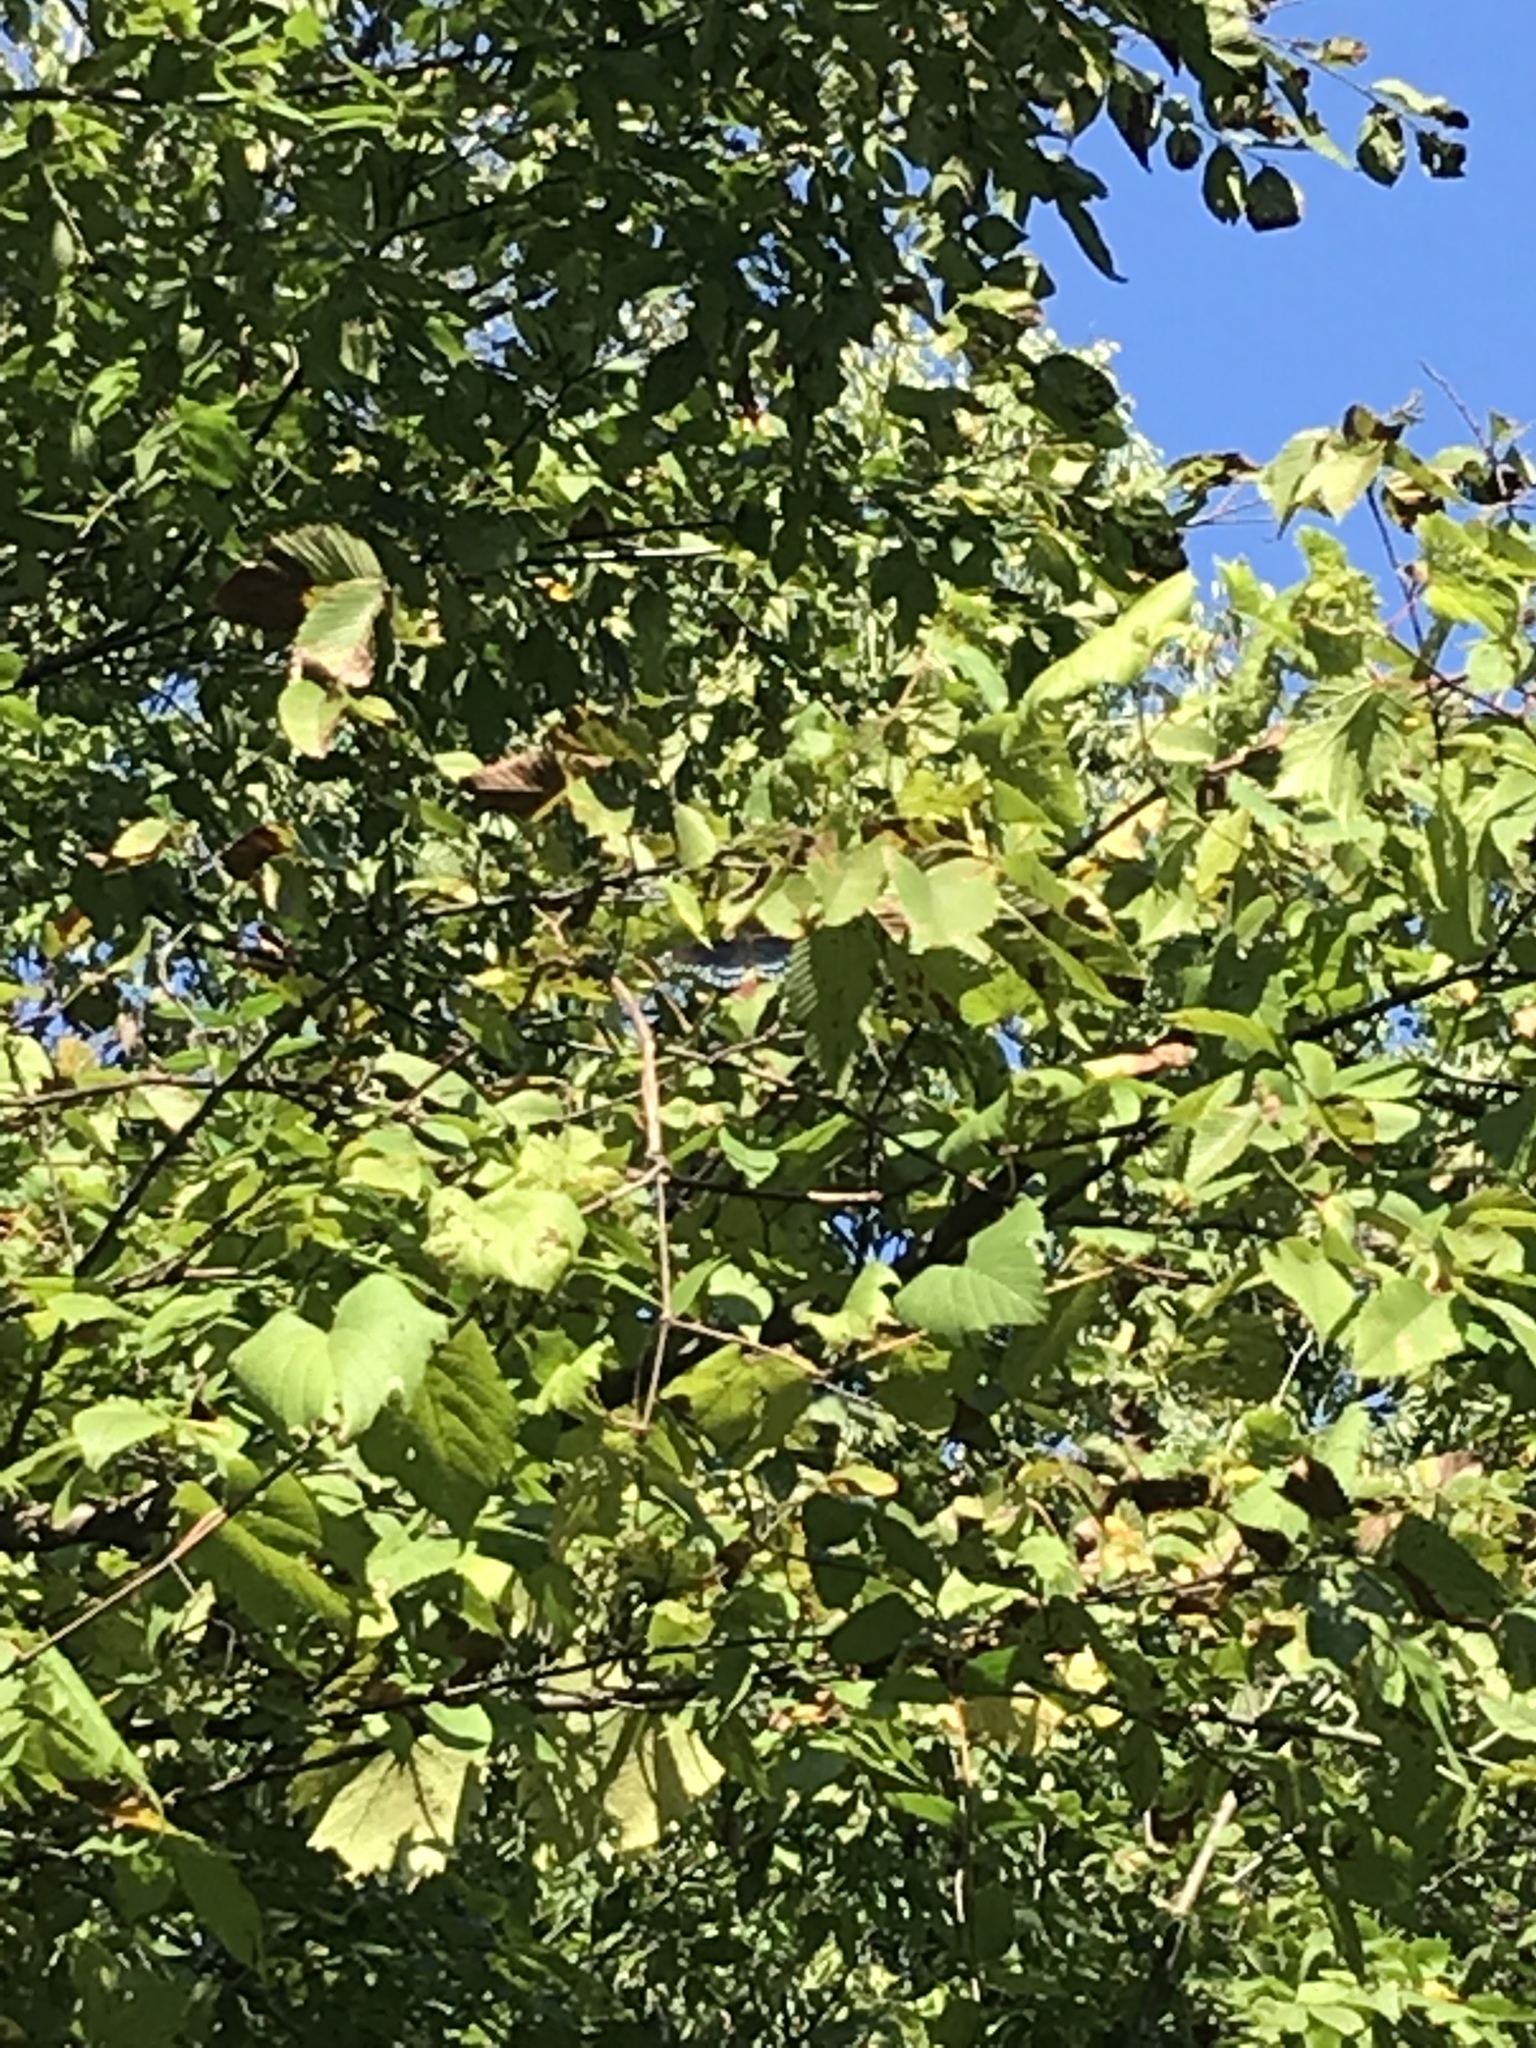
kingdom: Animalia
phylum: Arthropoda
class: Insecta
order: Lepidoptera
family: Nymphalidae
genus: Limenitis
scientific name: Limenitis arthemis
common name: Red-spotted admiral
